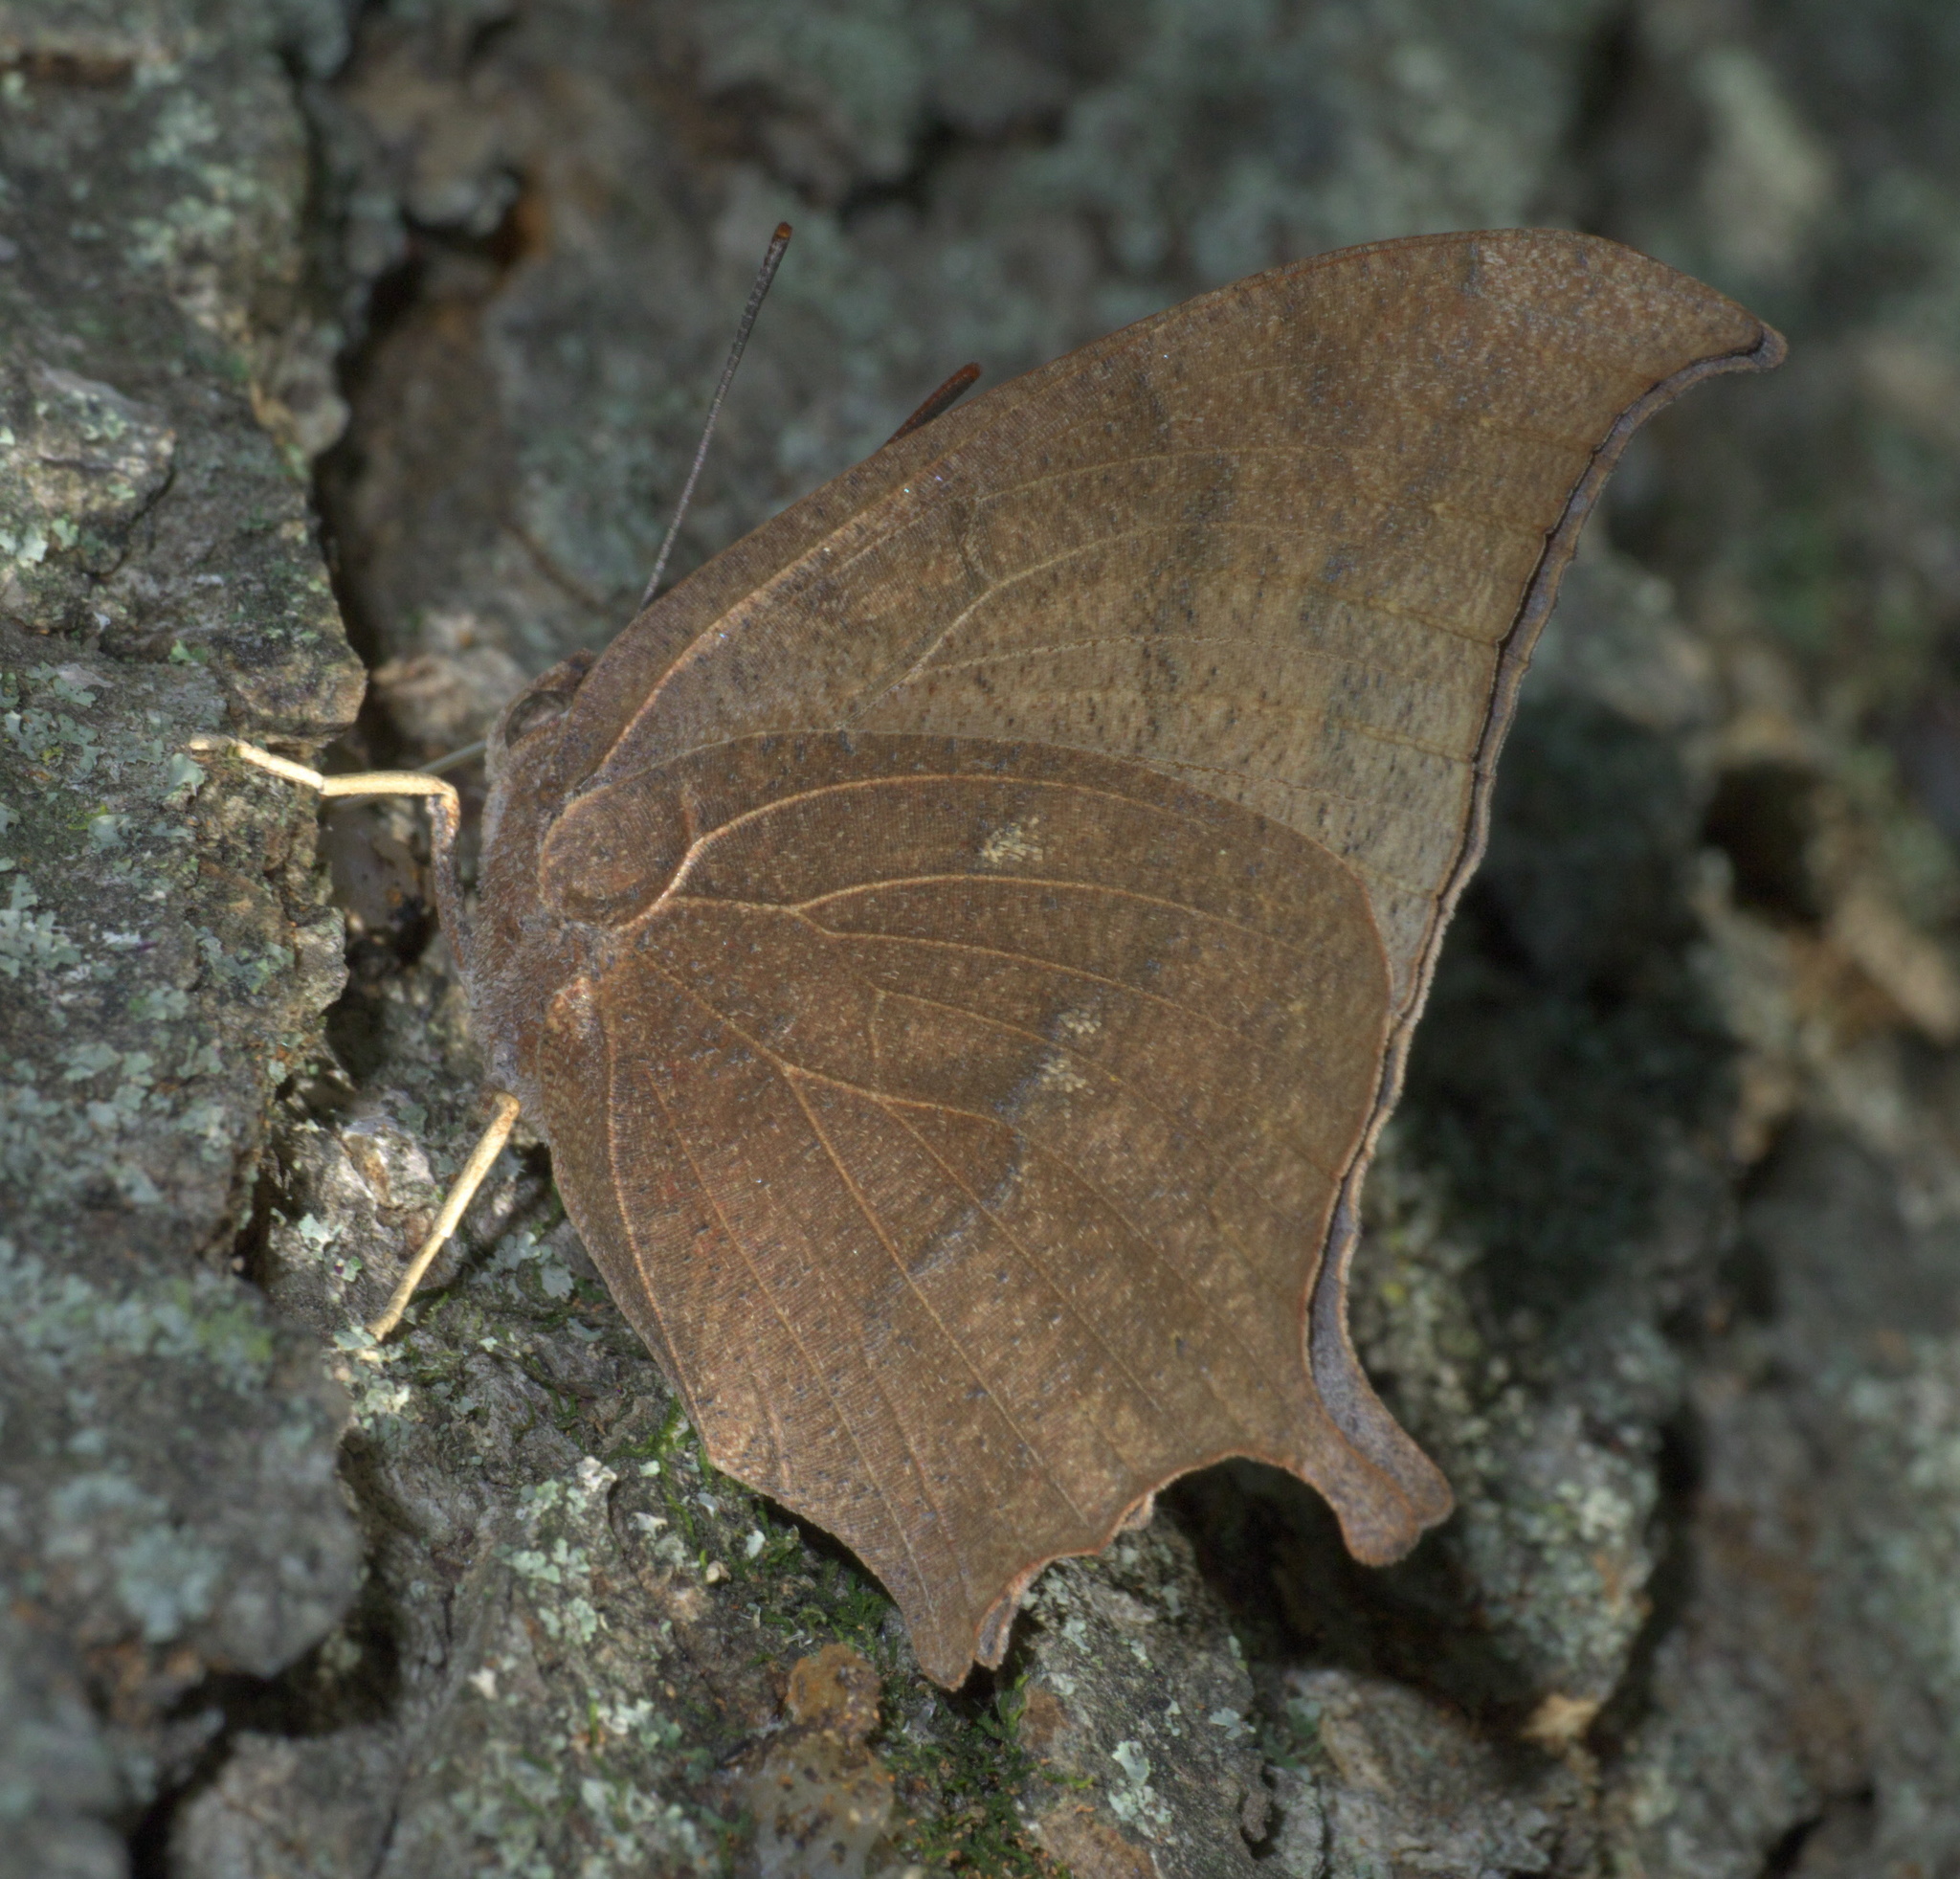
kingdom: Animalia
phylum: Arthropoda
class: Insecta
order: Lepidoptera
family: Nymphalidae
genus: Anaea
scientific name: Anaea andria
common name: Goatweed leafwing
